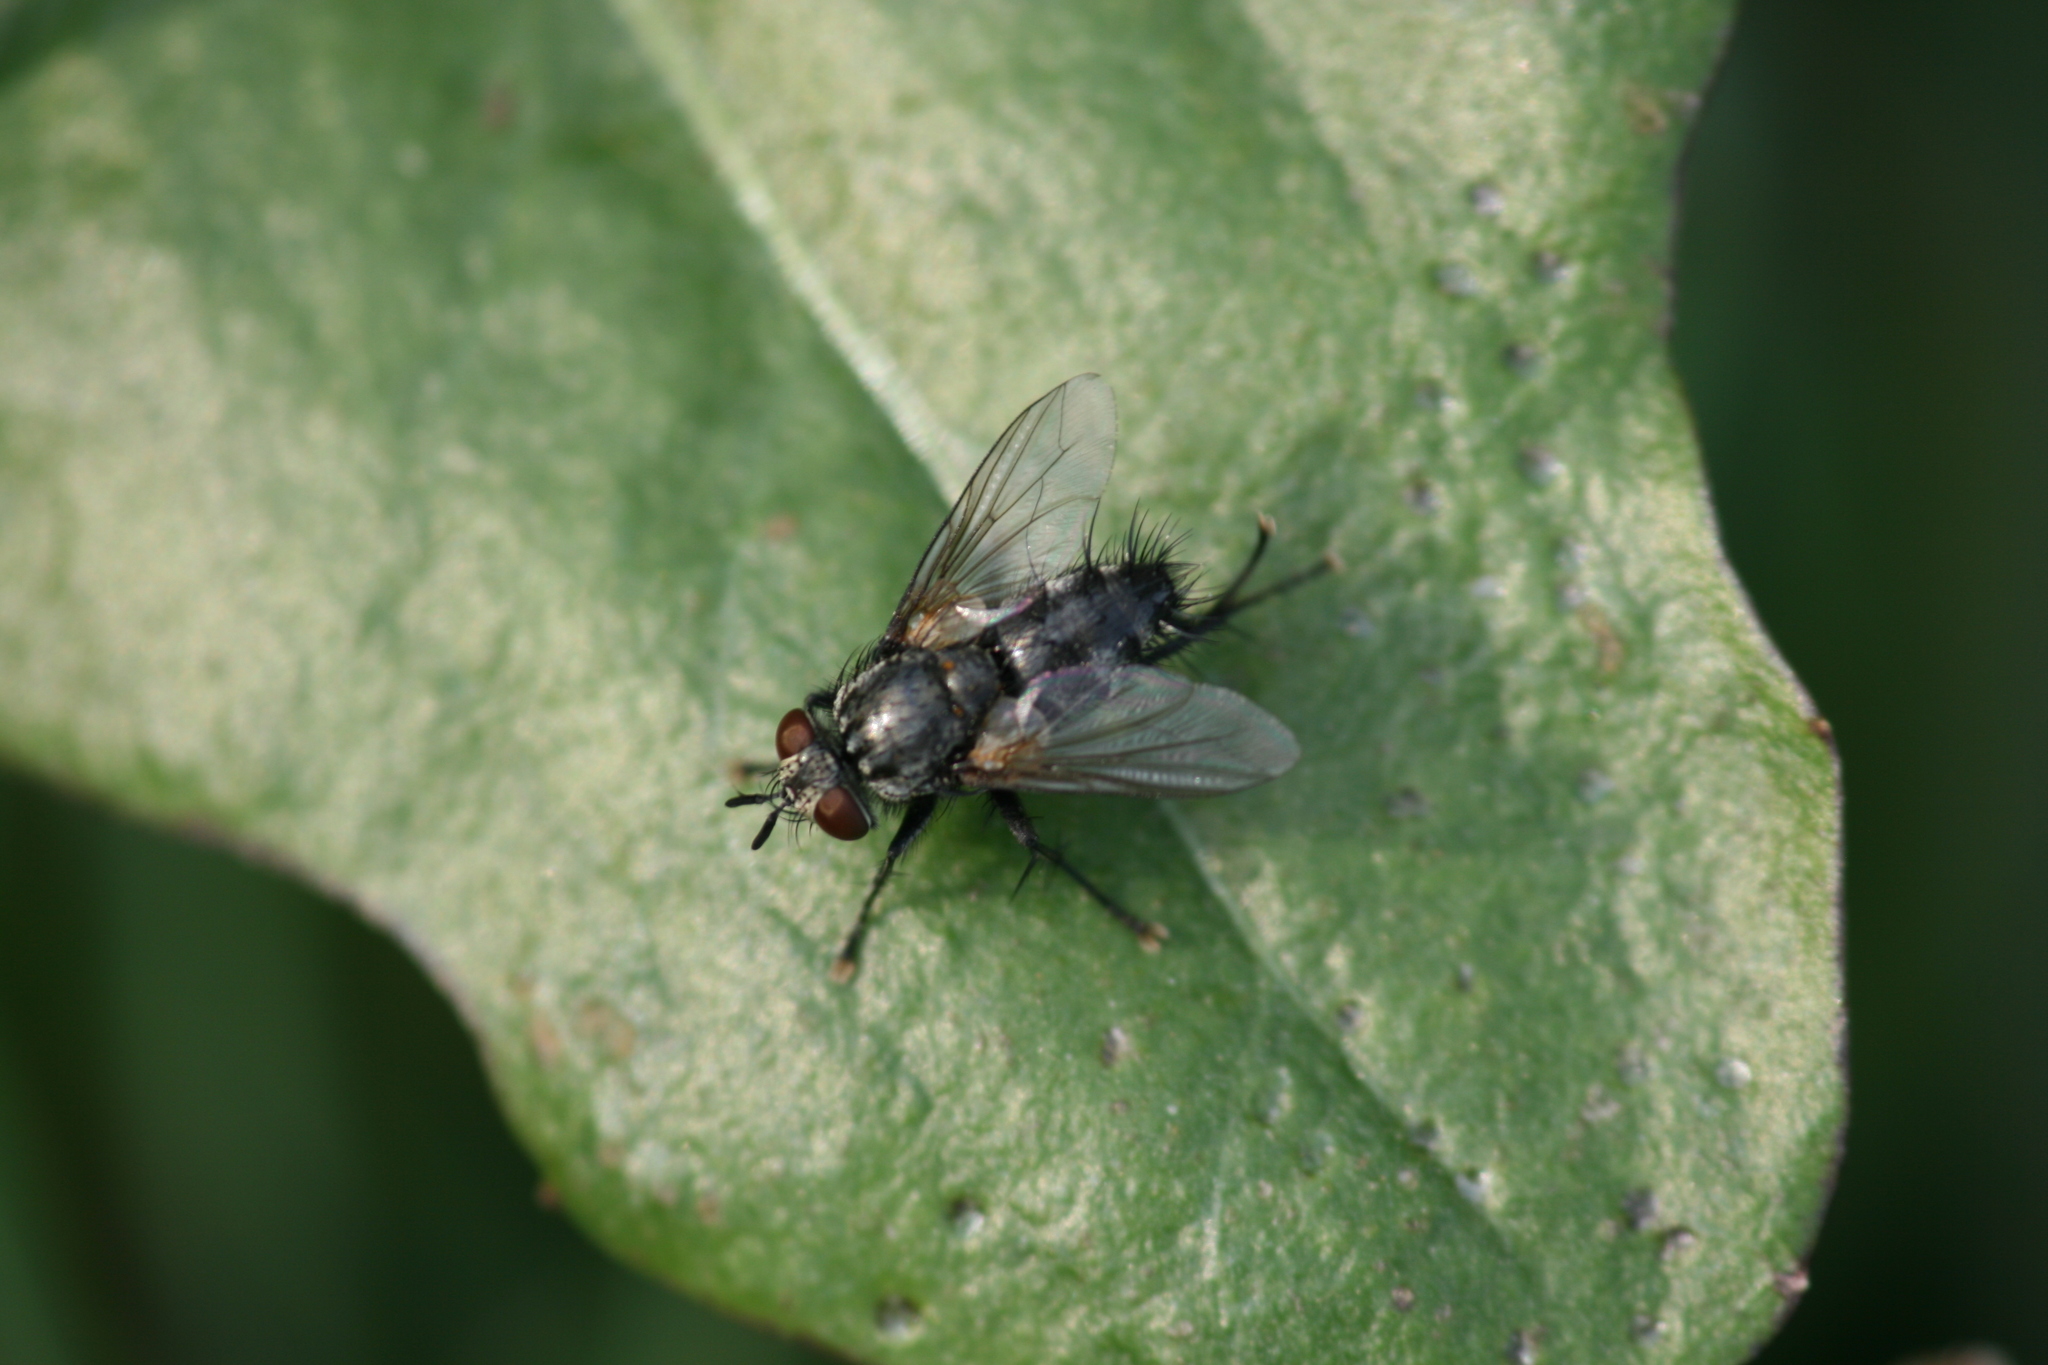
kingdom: Animalia
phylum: Arthropoda
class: Insecta
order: Diptera
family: Tachinidae
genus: Voria
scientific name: Voria ruralis
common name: Parasitic fly
